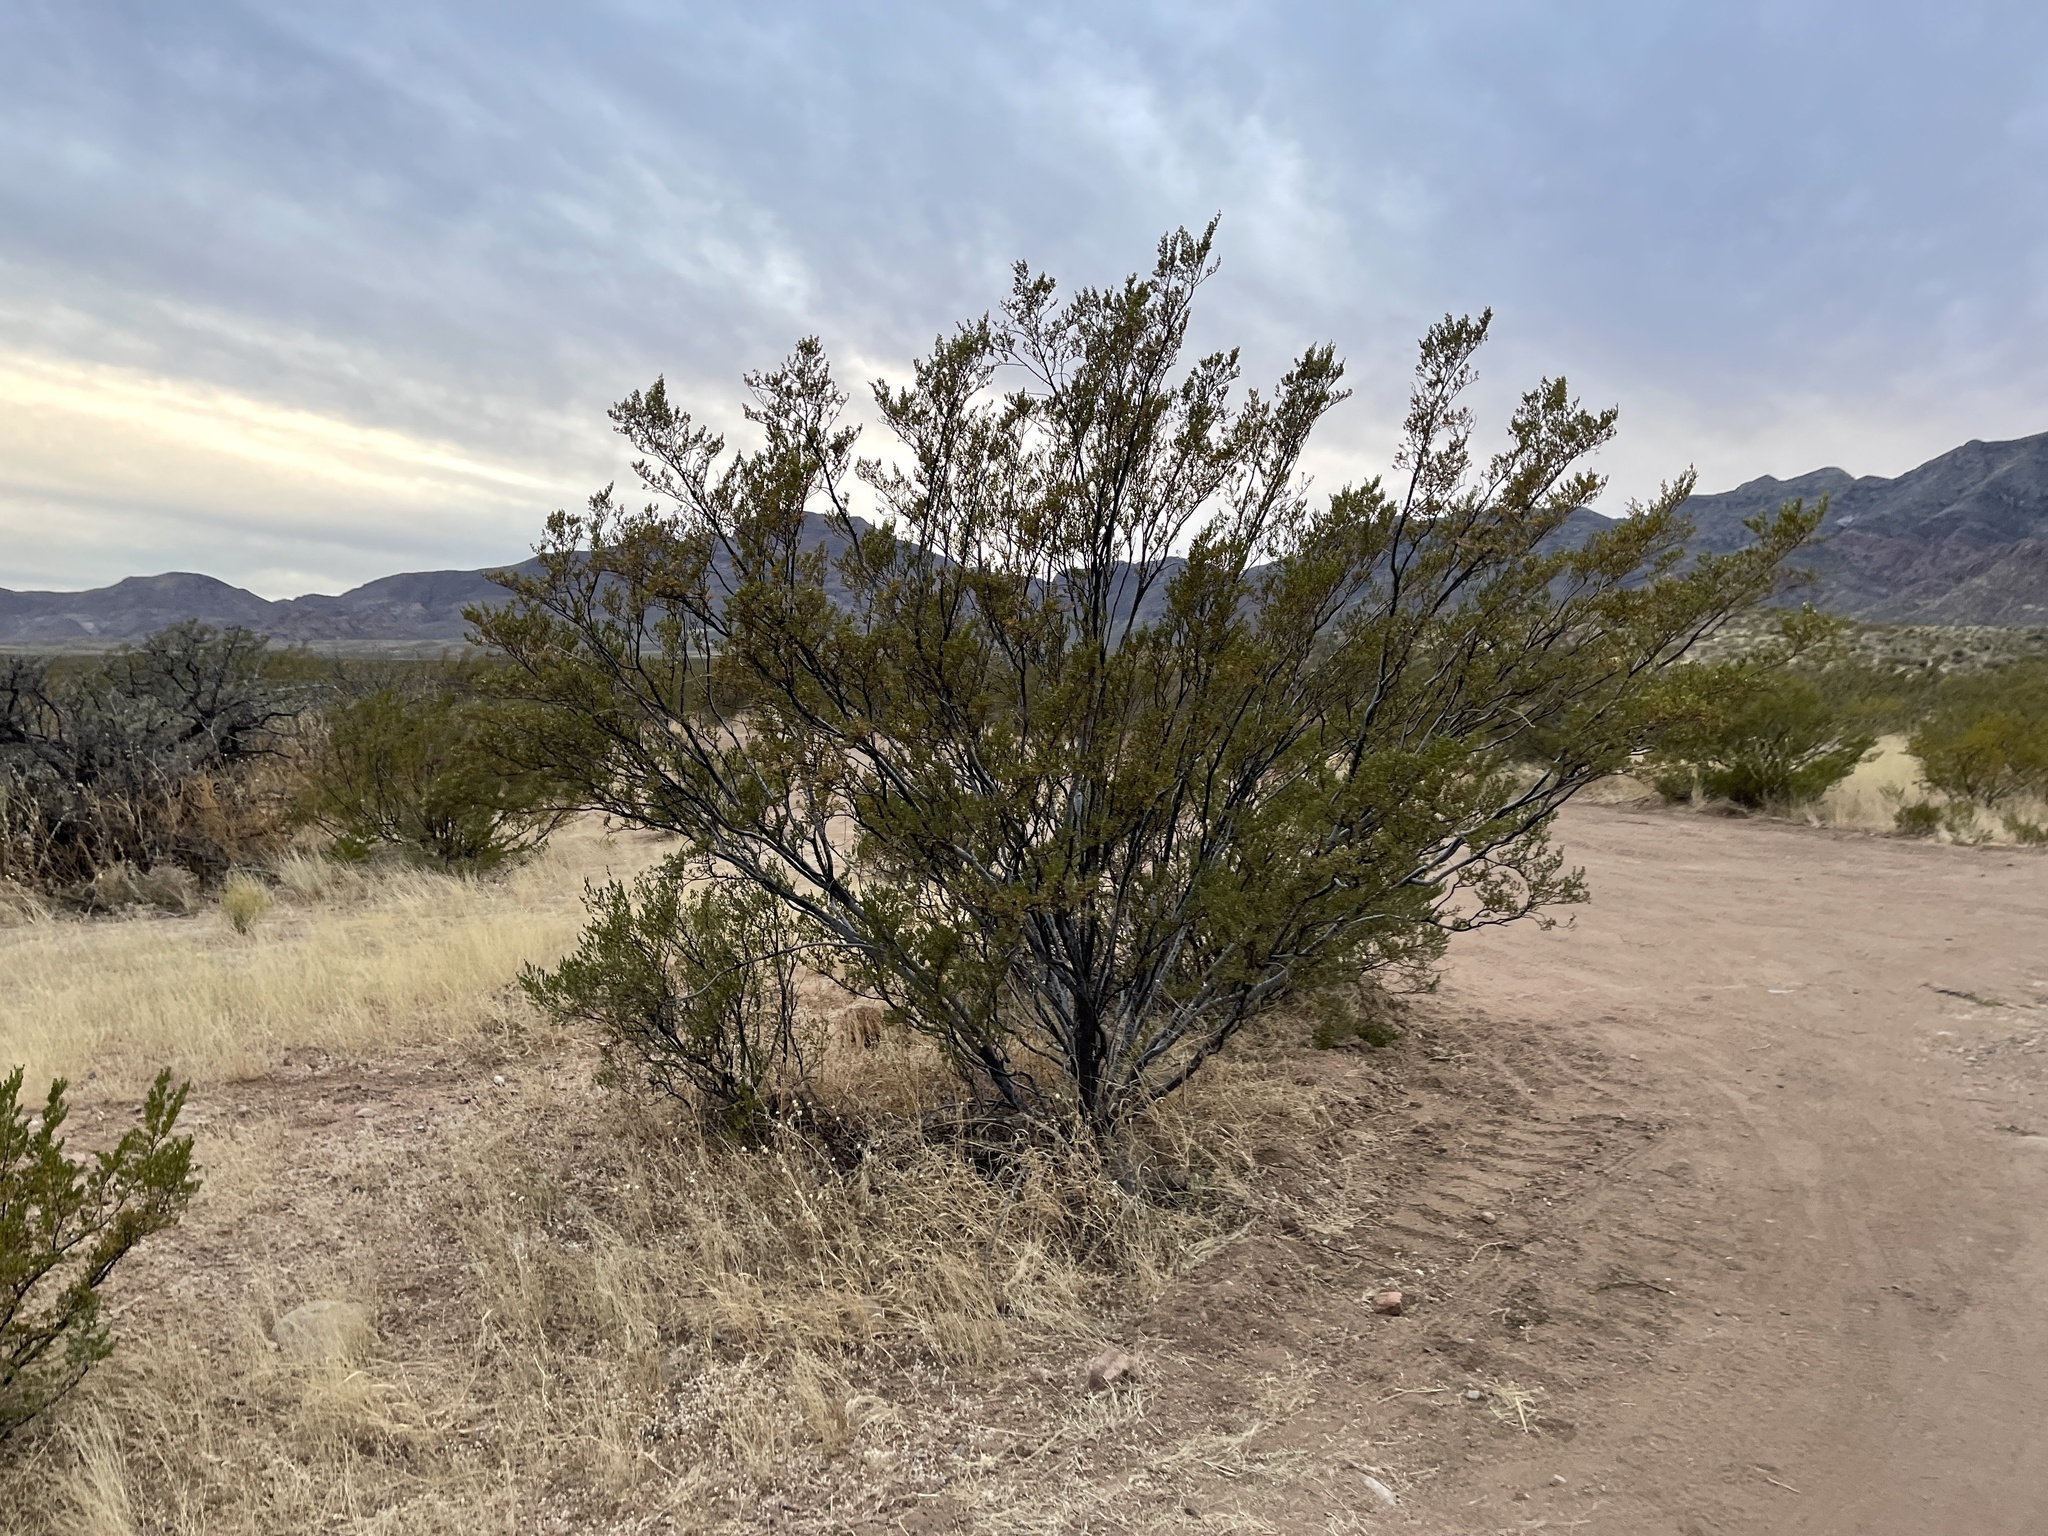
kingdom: Plantae
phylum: Tracheophyta
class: Magnoliopsida
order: Zygophyllales
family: Zygophyllaceae
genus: Larrea
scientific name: Larrea tridentata
